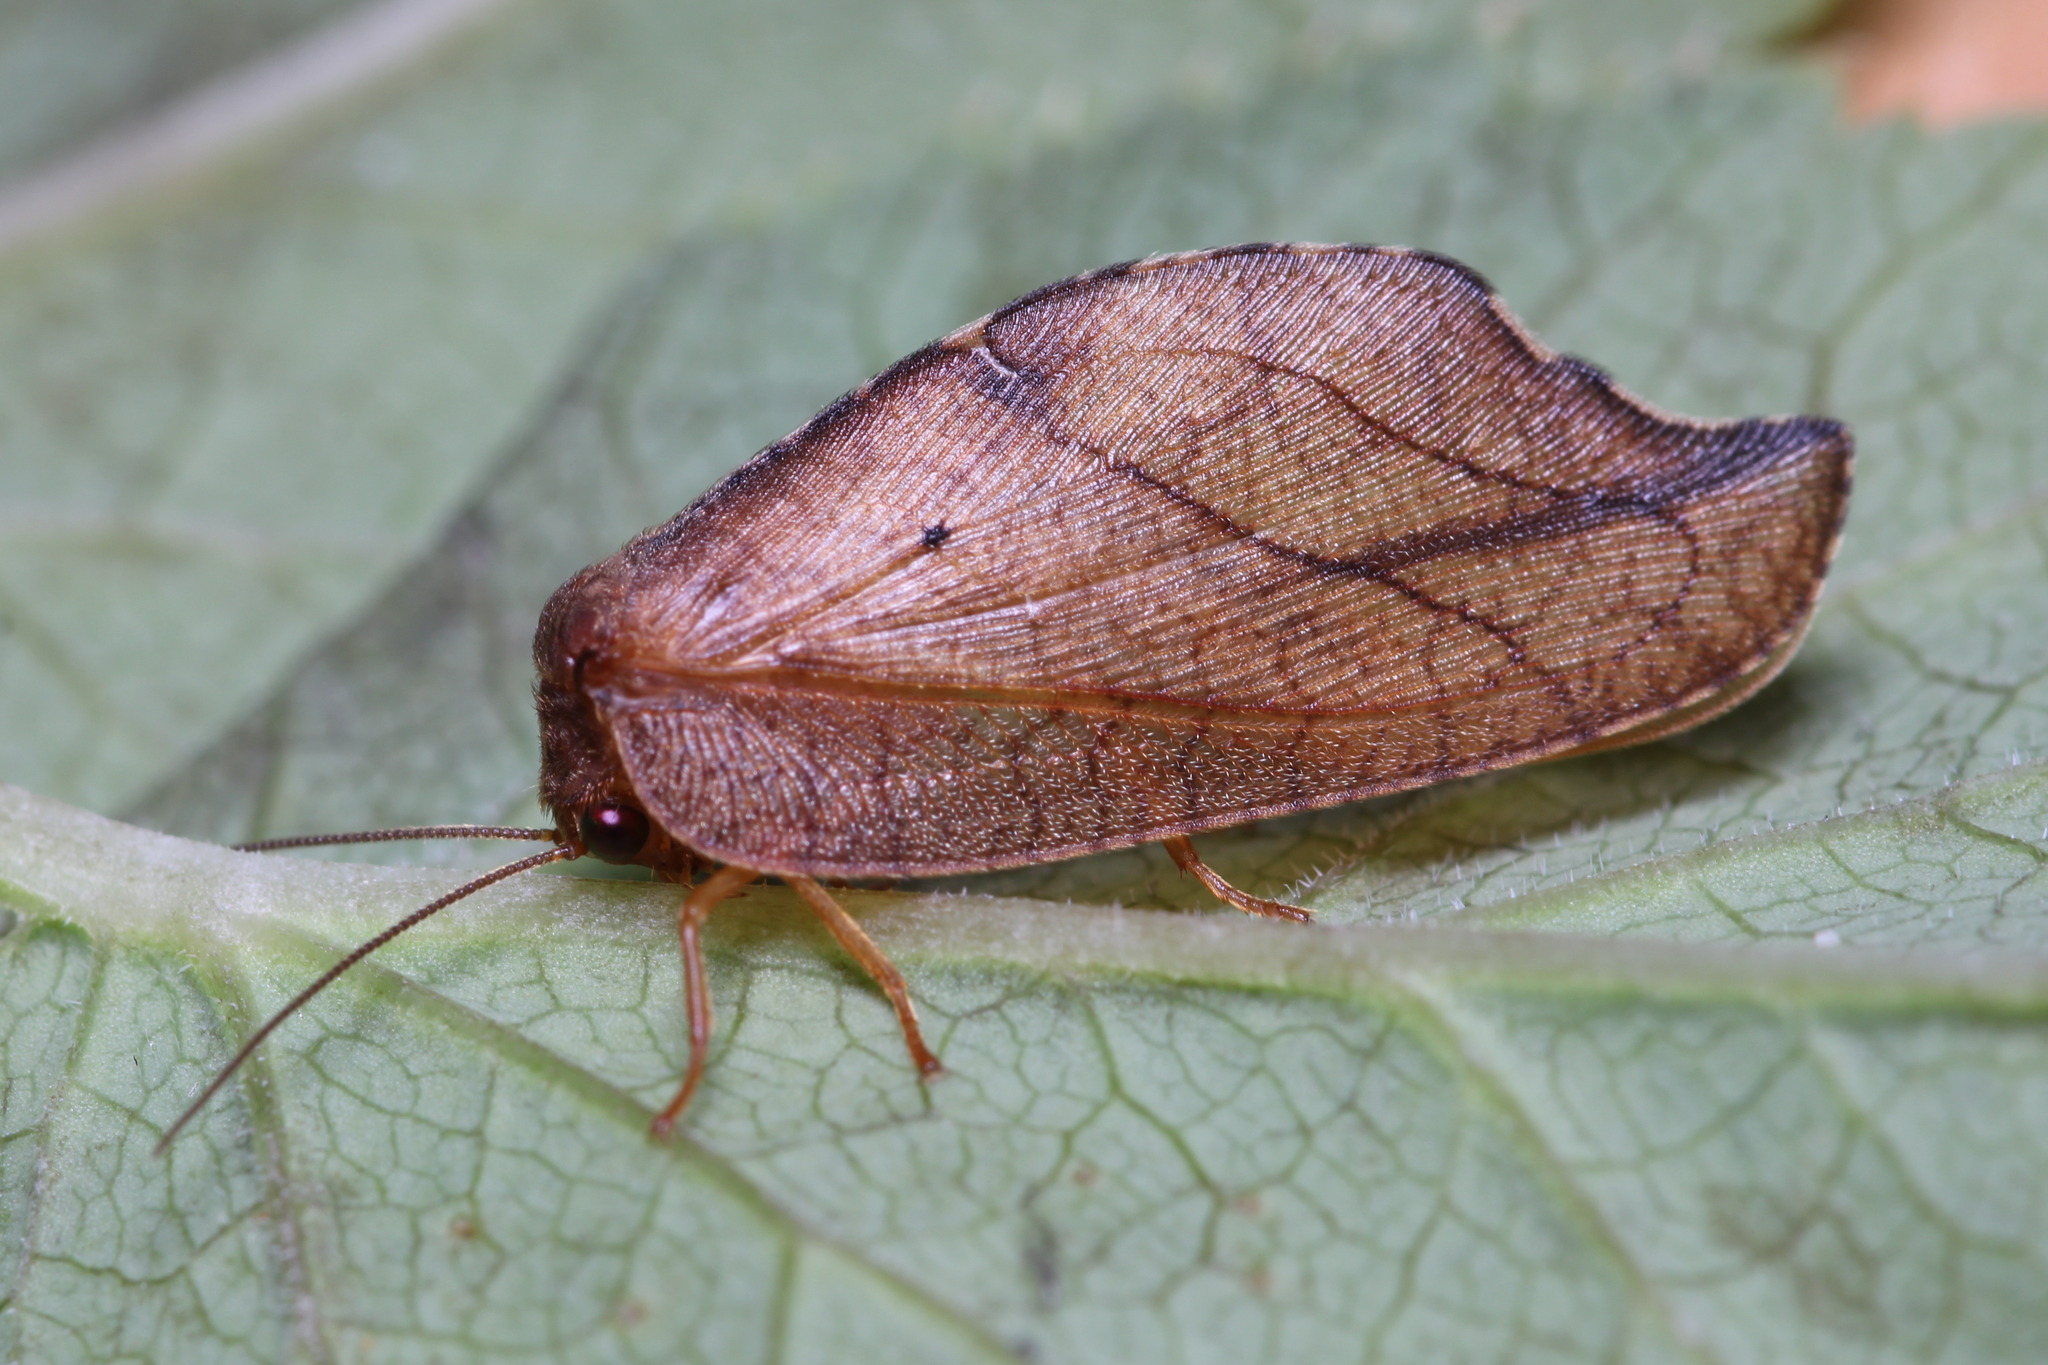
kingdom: Animalia
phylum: Arthropoda
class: Insecta
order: Neuroptera
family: Hemerobiidae
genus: Drepanepteryx
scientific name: Drepanepteryx phalaenoides
